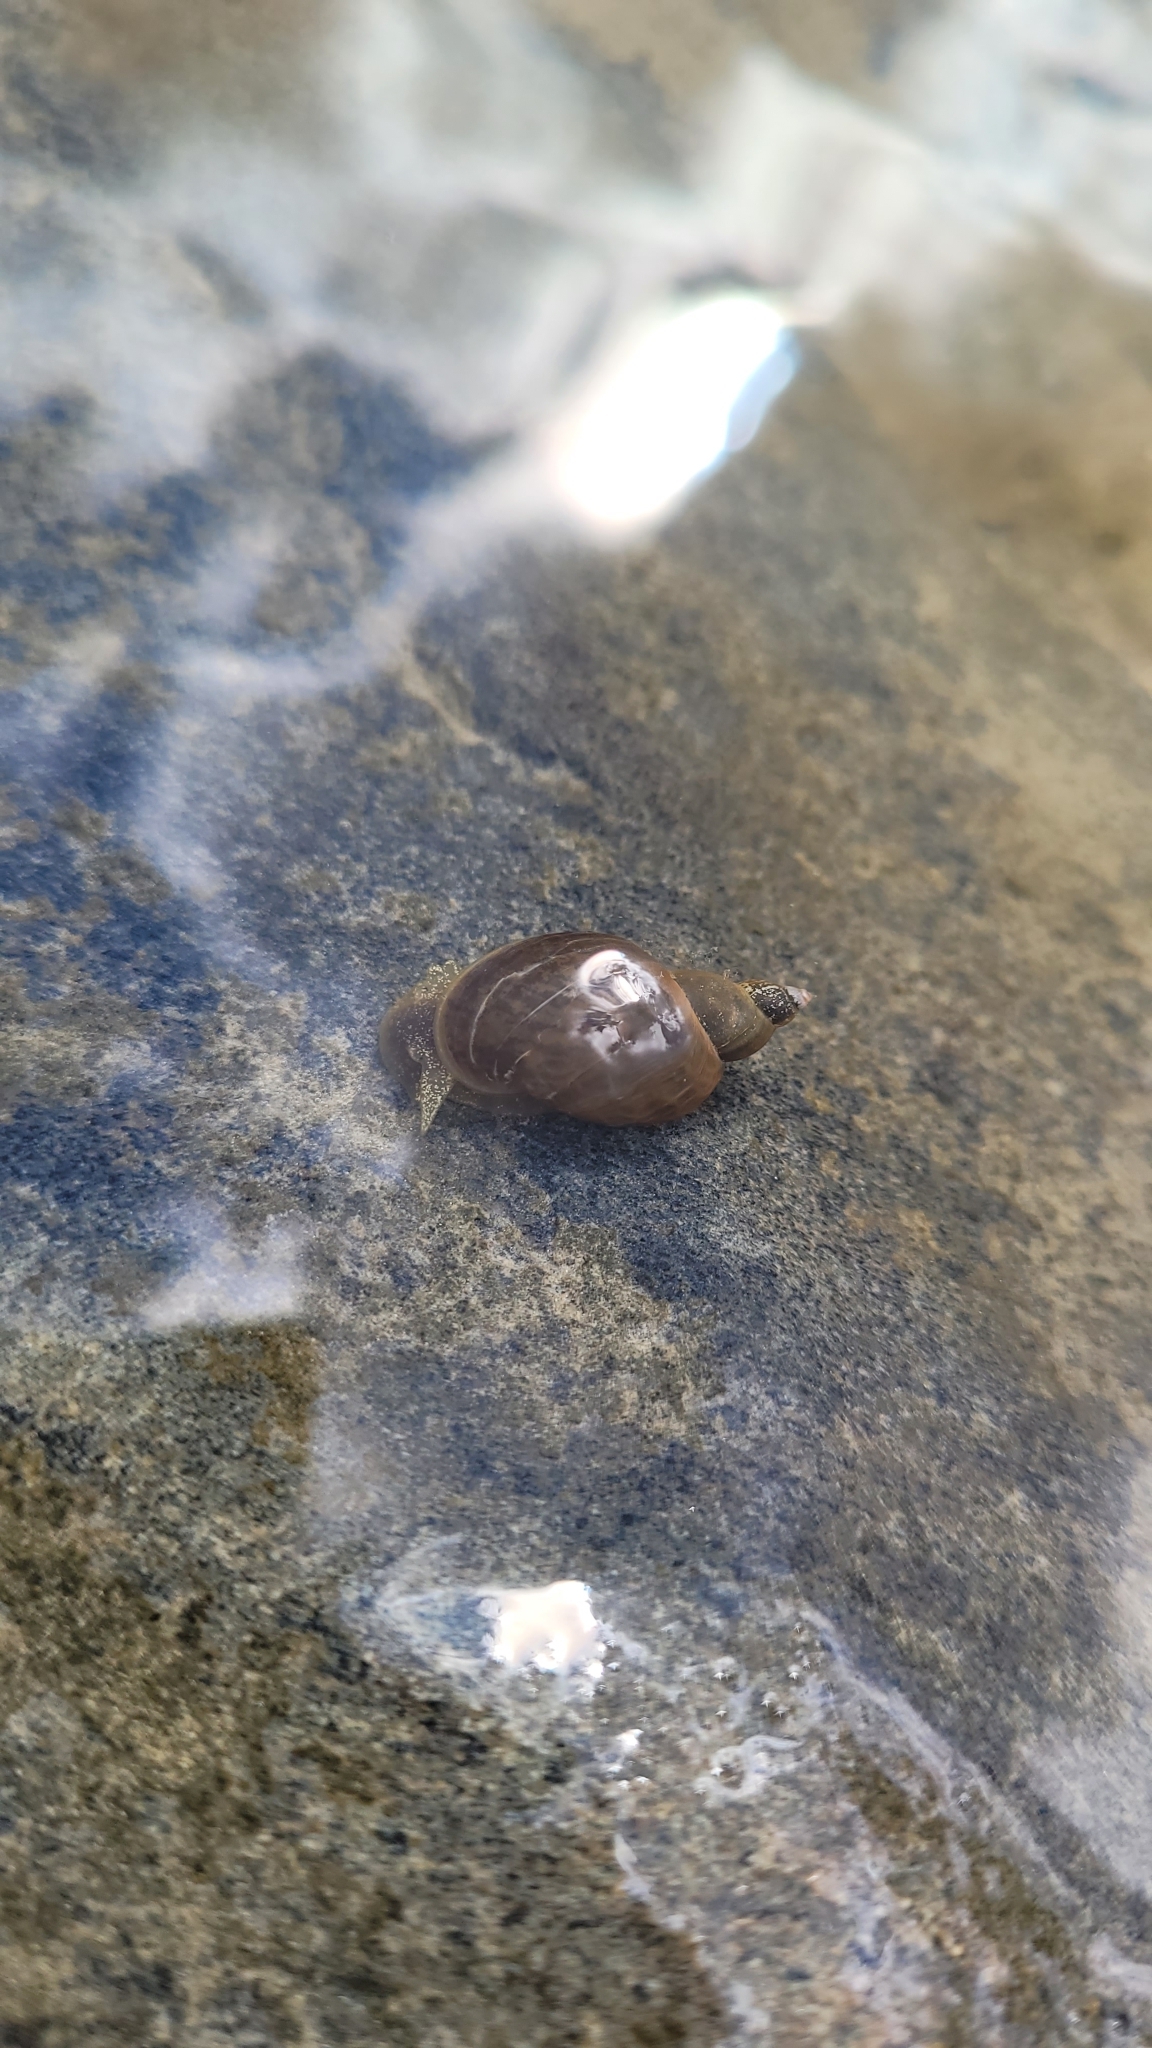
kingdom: Animalia
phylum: Mollusca
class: Gastropoda
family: Lymnaeidae
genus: Lymnaea
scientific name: Lymnaea stagnalis
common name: Great pond snail
